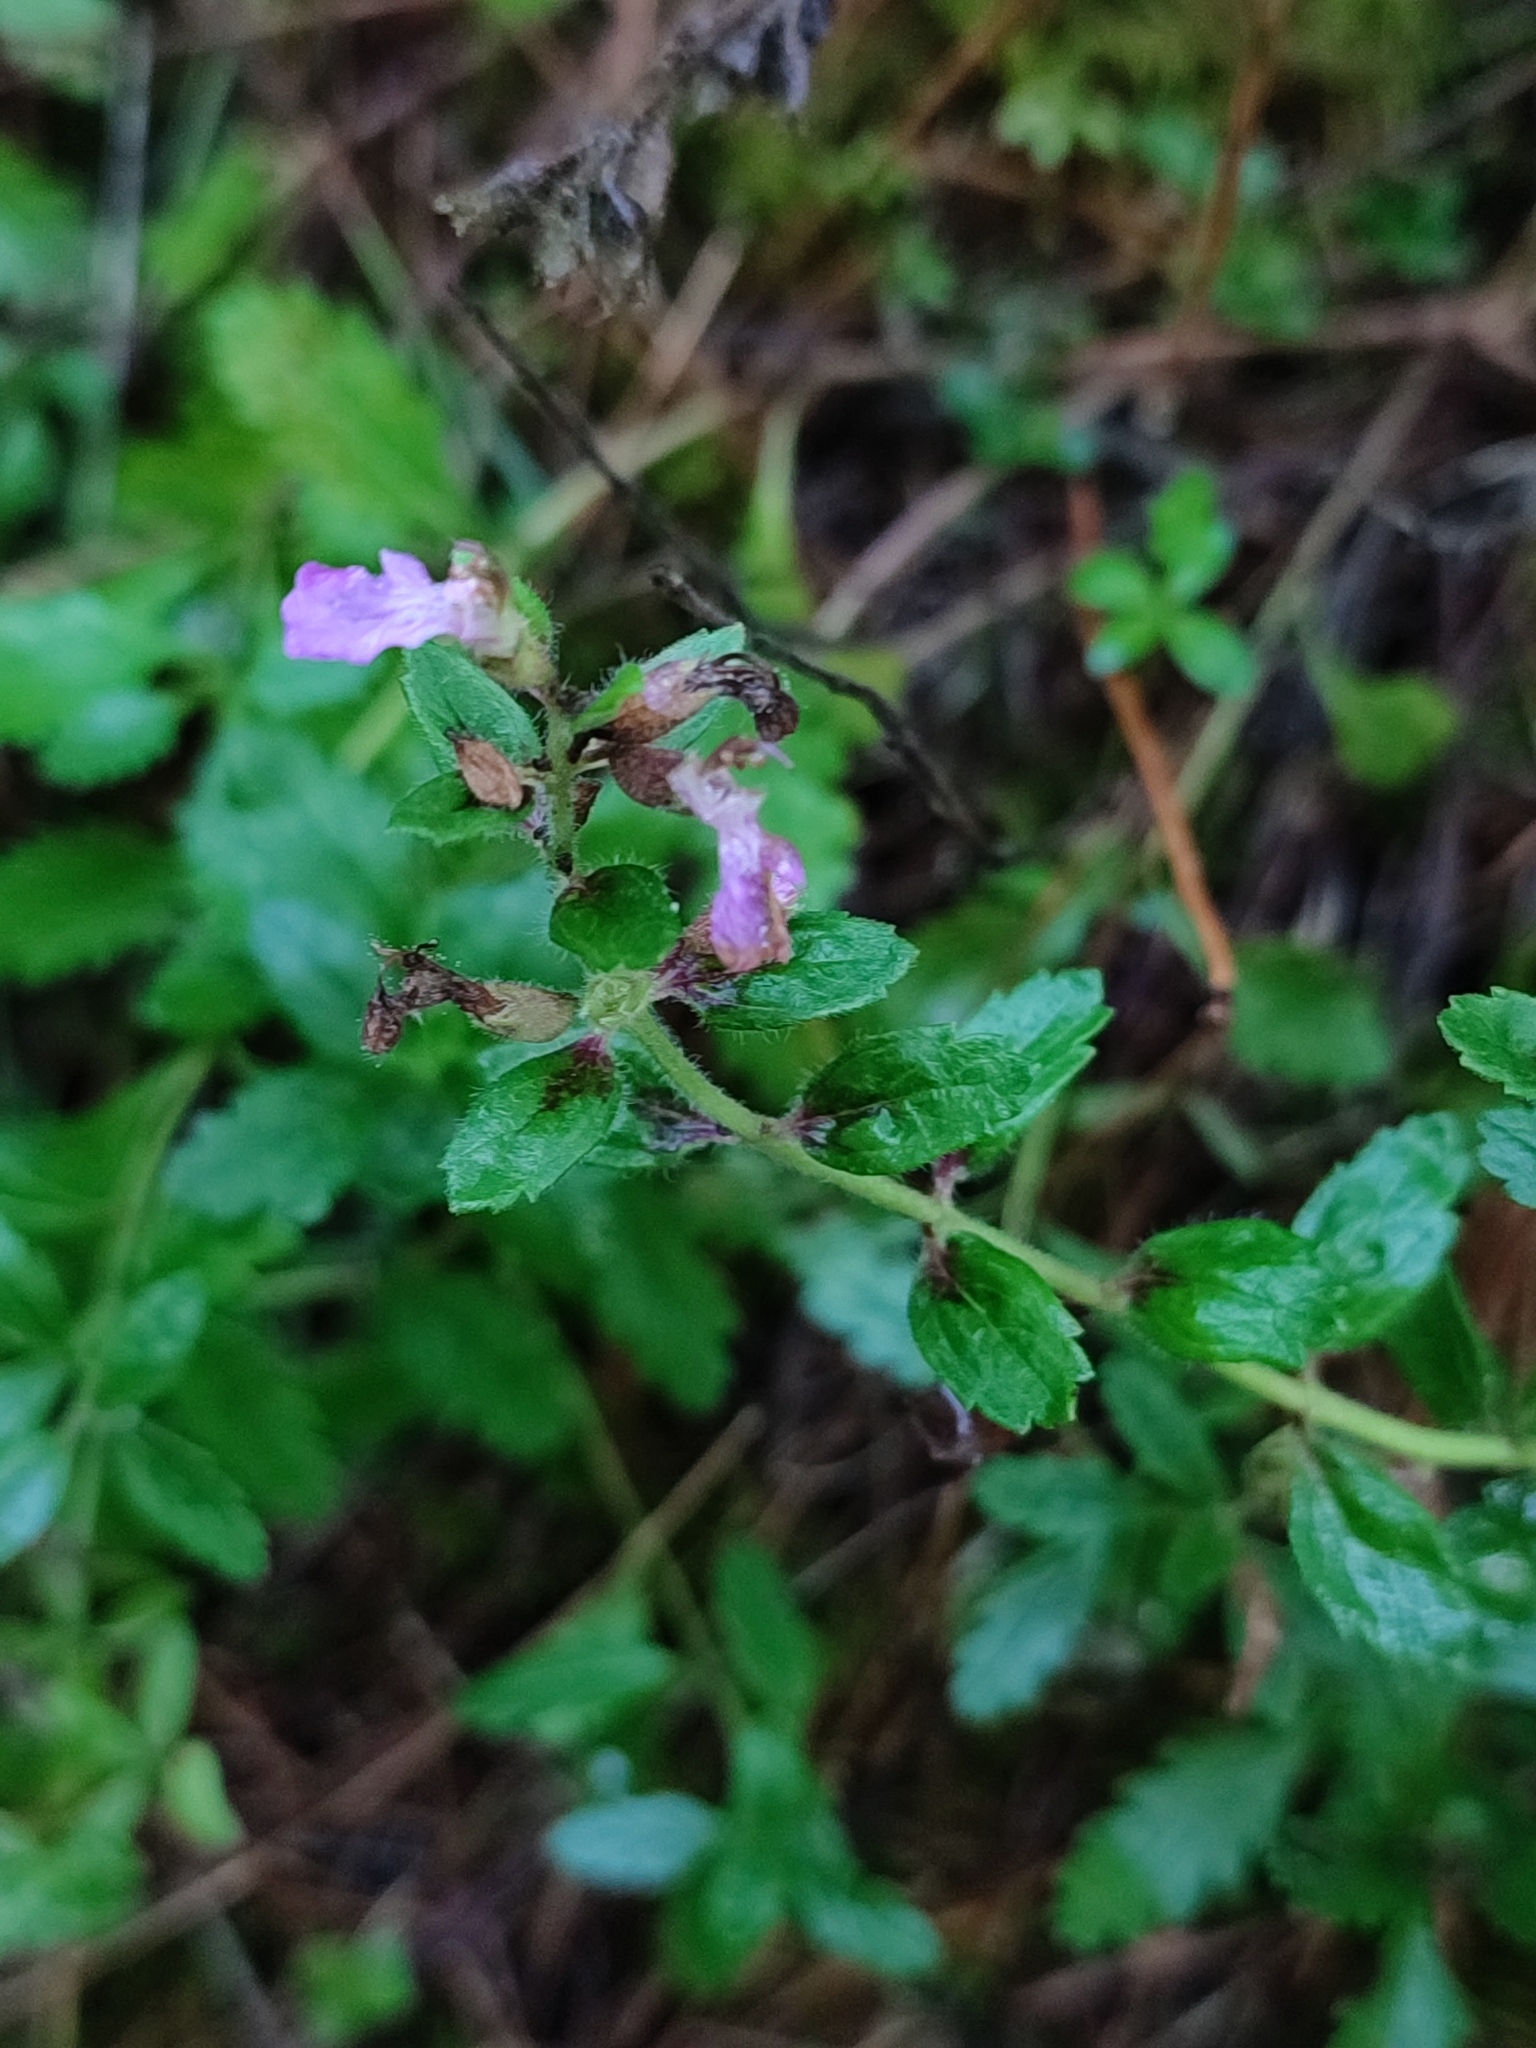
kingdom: Plantae
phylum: Tracheophyta
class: Magnoliopsida
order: Lamiales
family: Lamiaceae
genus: Teucrium
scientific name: Teucrium chamaedrys
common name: Wall germander
